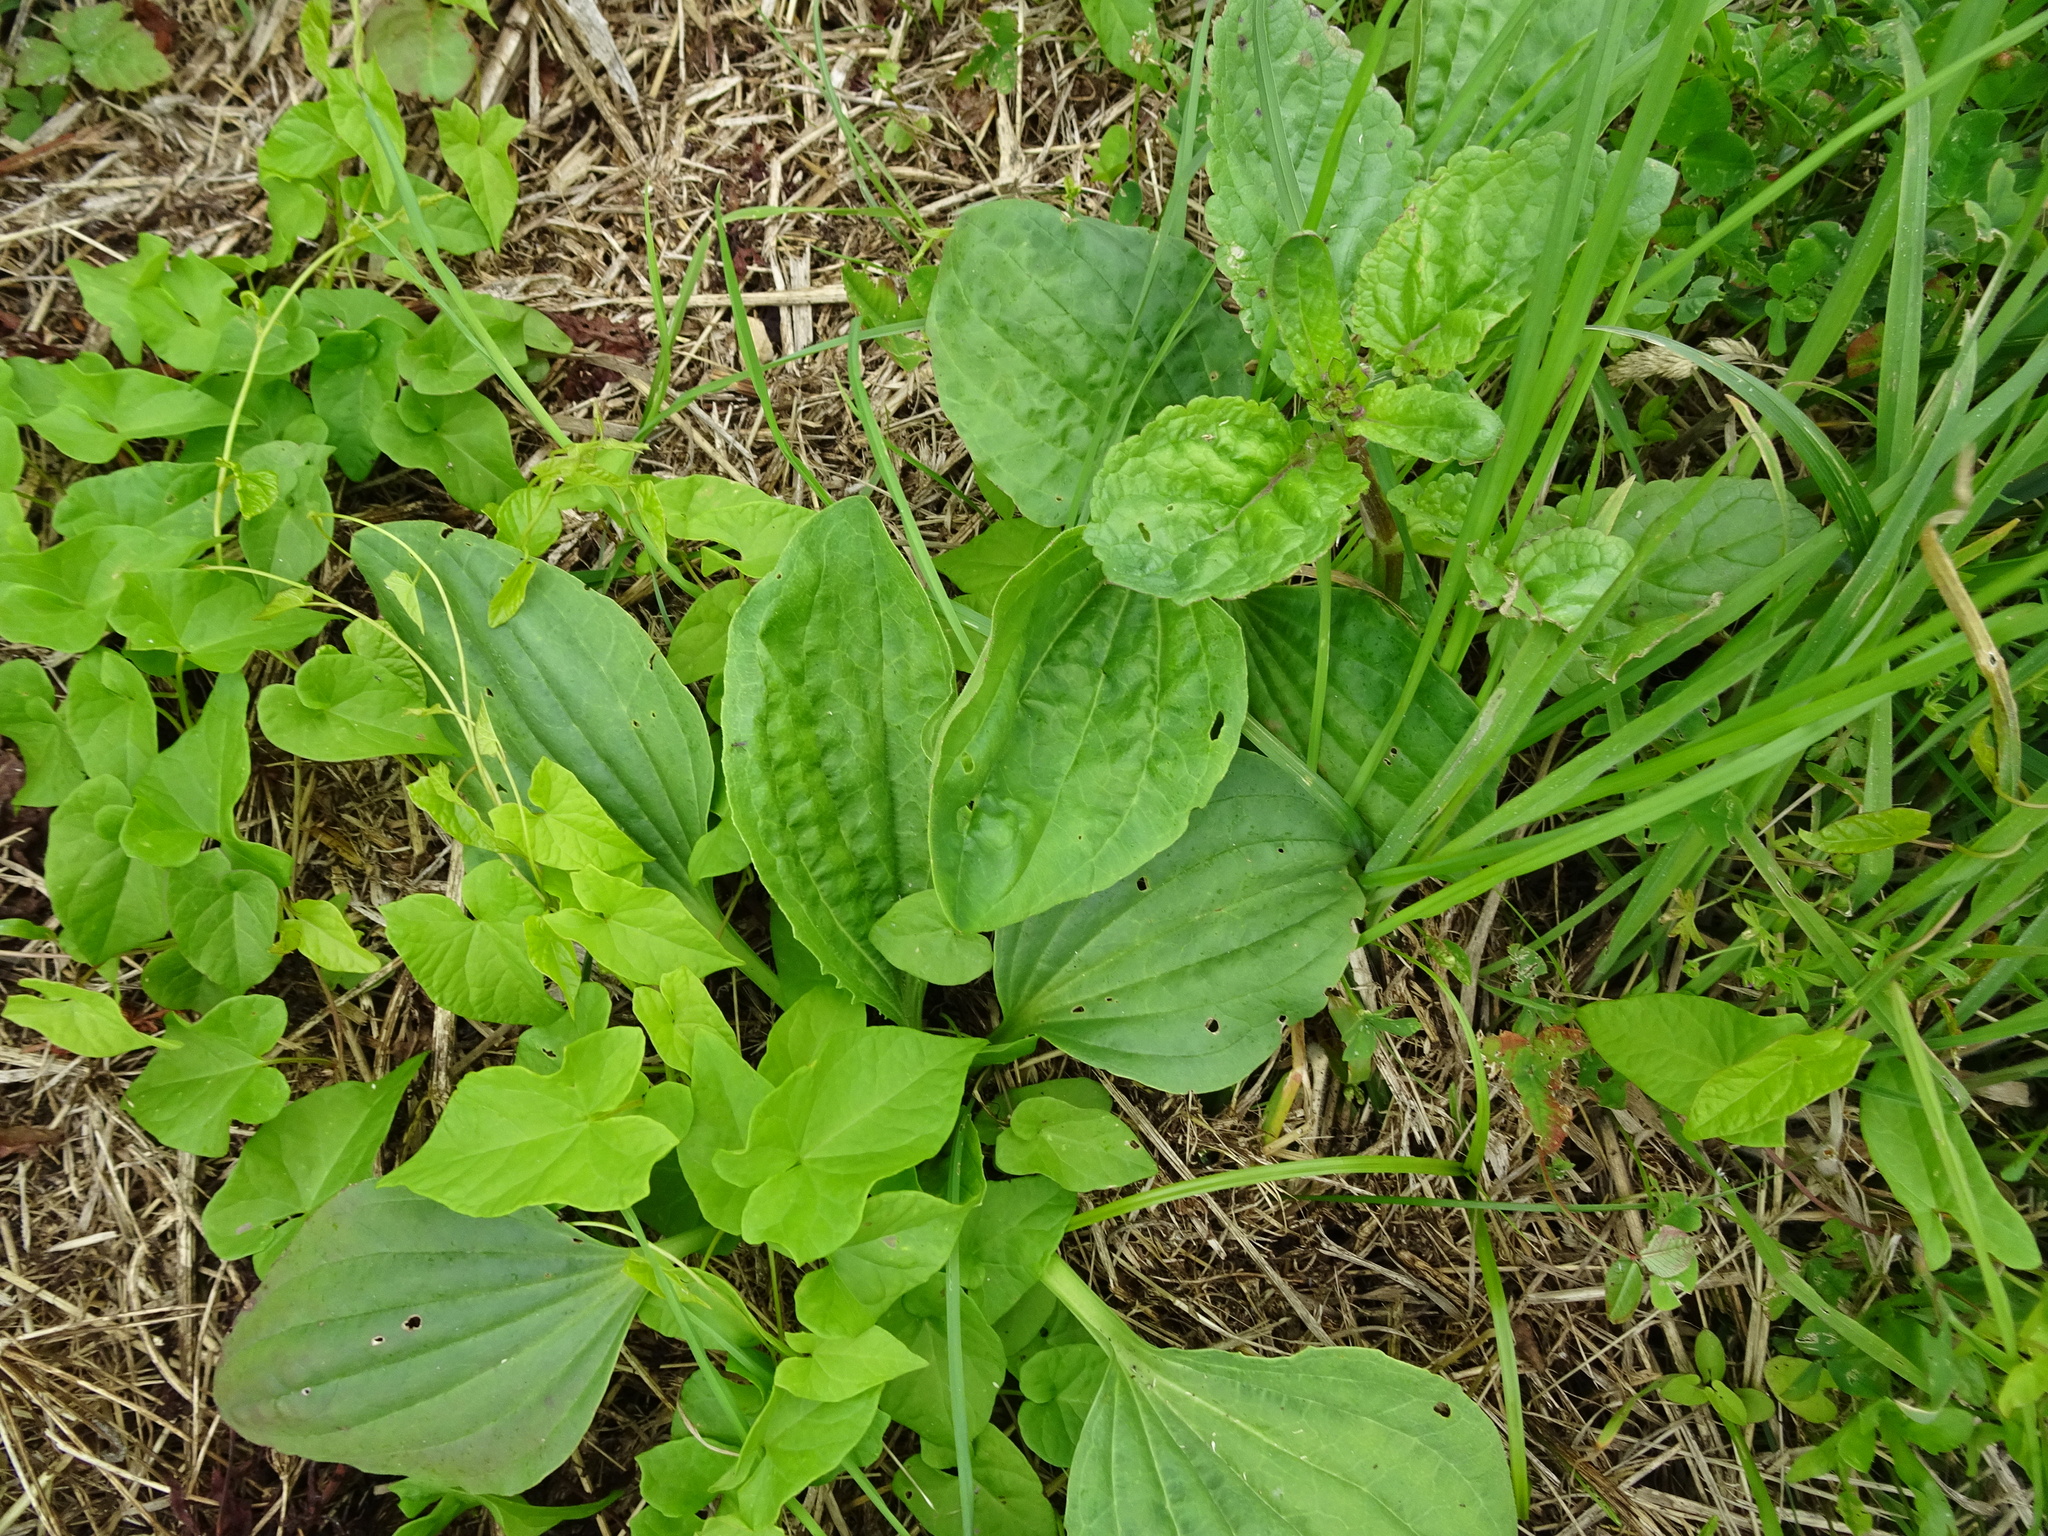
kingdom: Plantae
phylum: Tracheophyta
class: Magnoliopsida
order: Lamiales
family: Plantaginaceae
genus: Plantago
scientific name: Plantago major
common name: Common plantain
